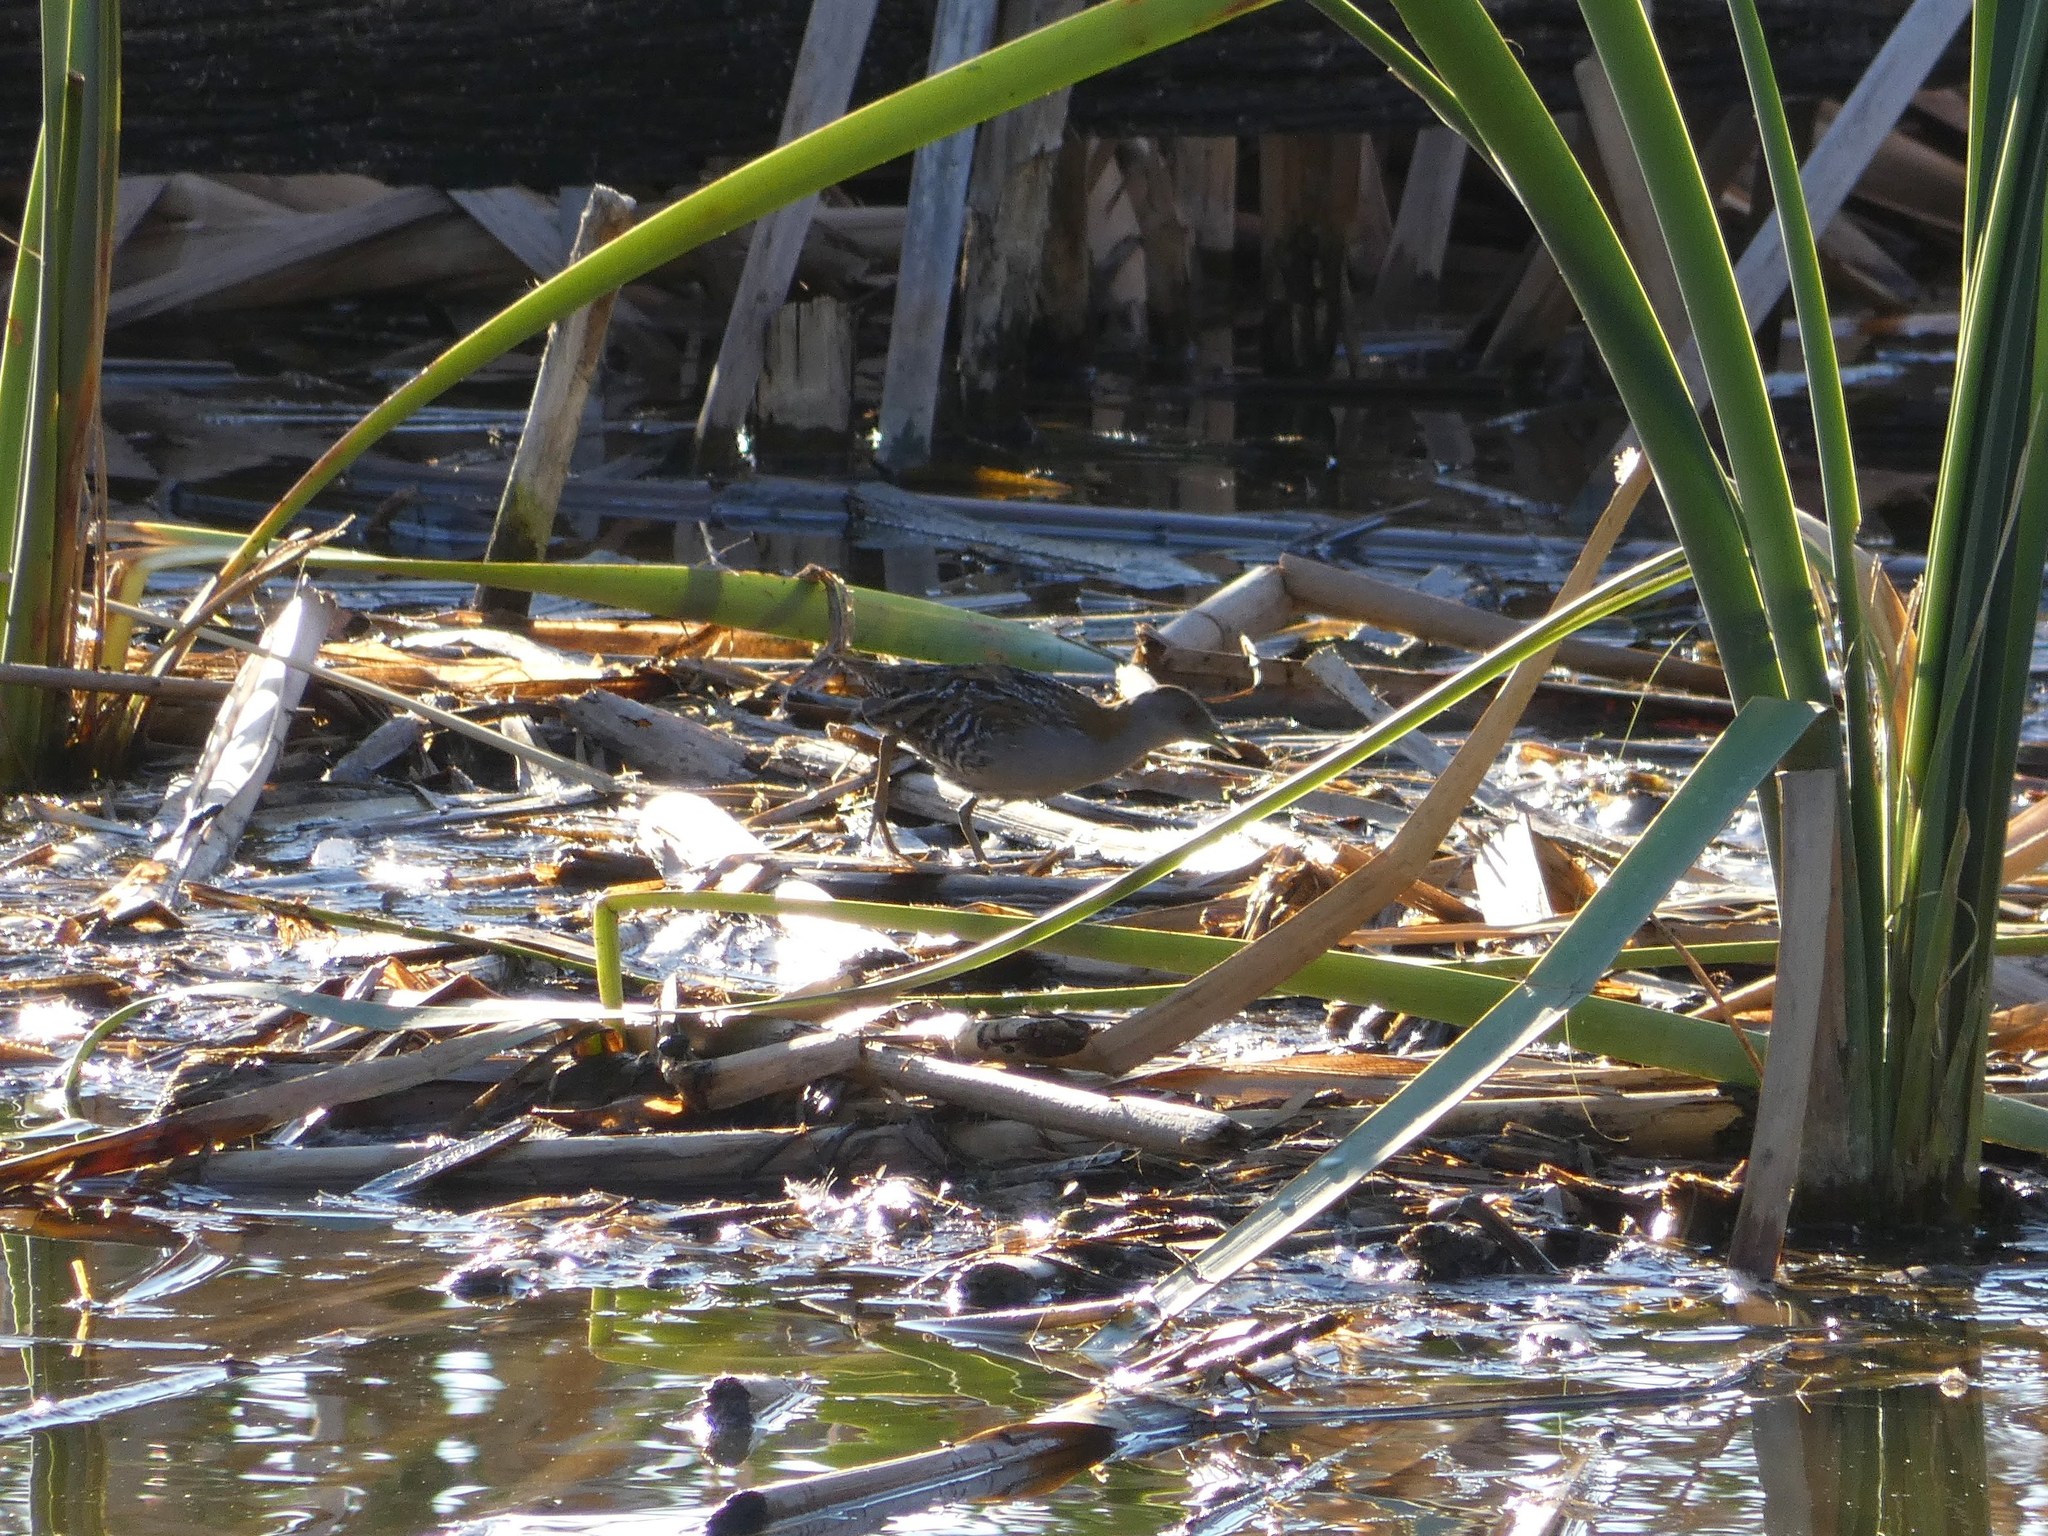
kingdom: Animalia
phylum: Chordata
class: Aves
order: Gruiformes
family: Rallidae
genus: Porzana
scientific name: Porzana pusilla
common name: Baillon's crake
